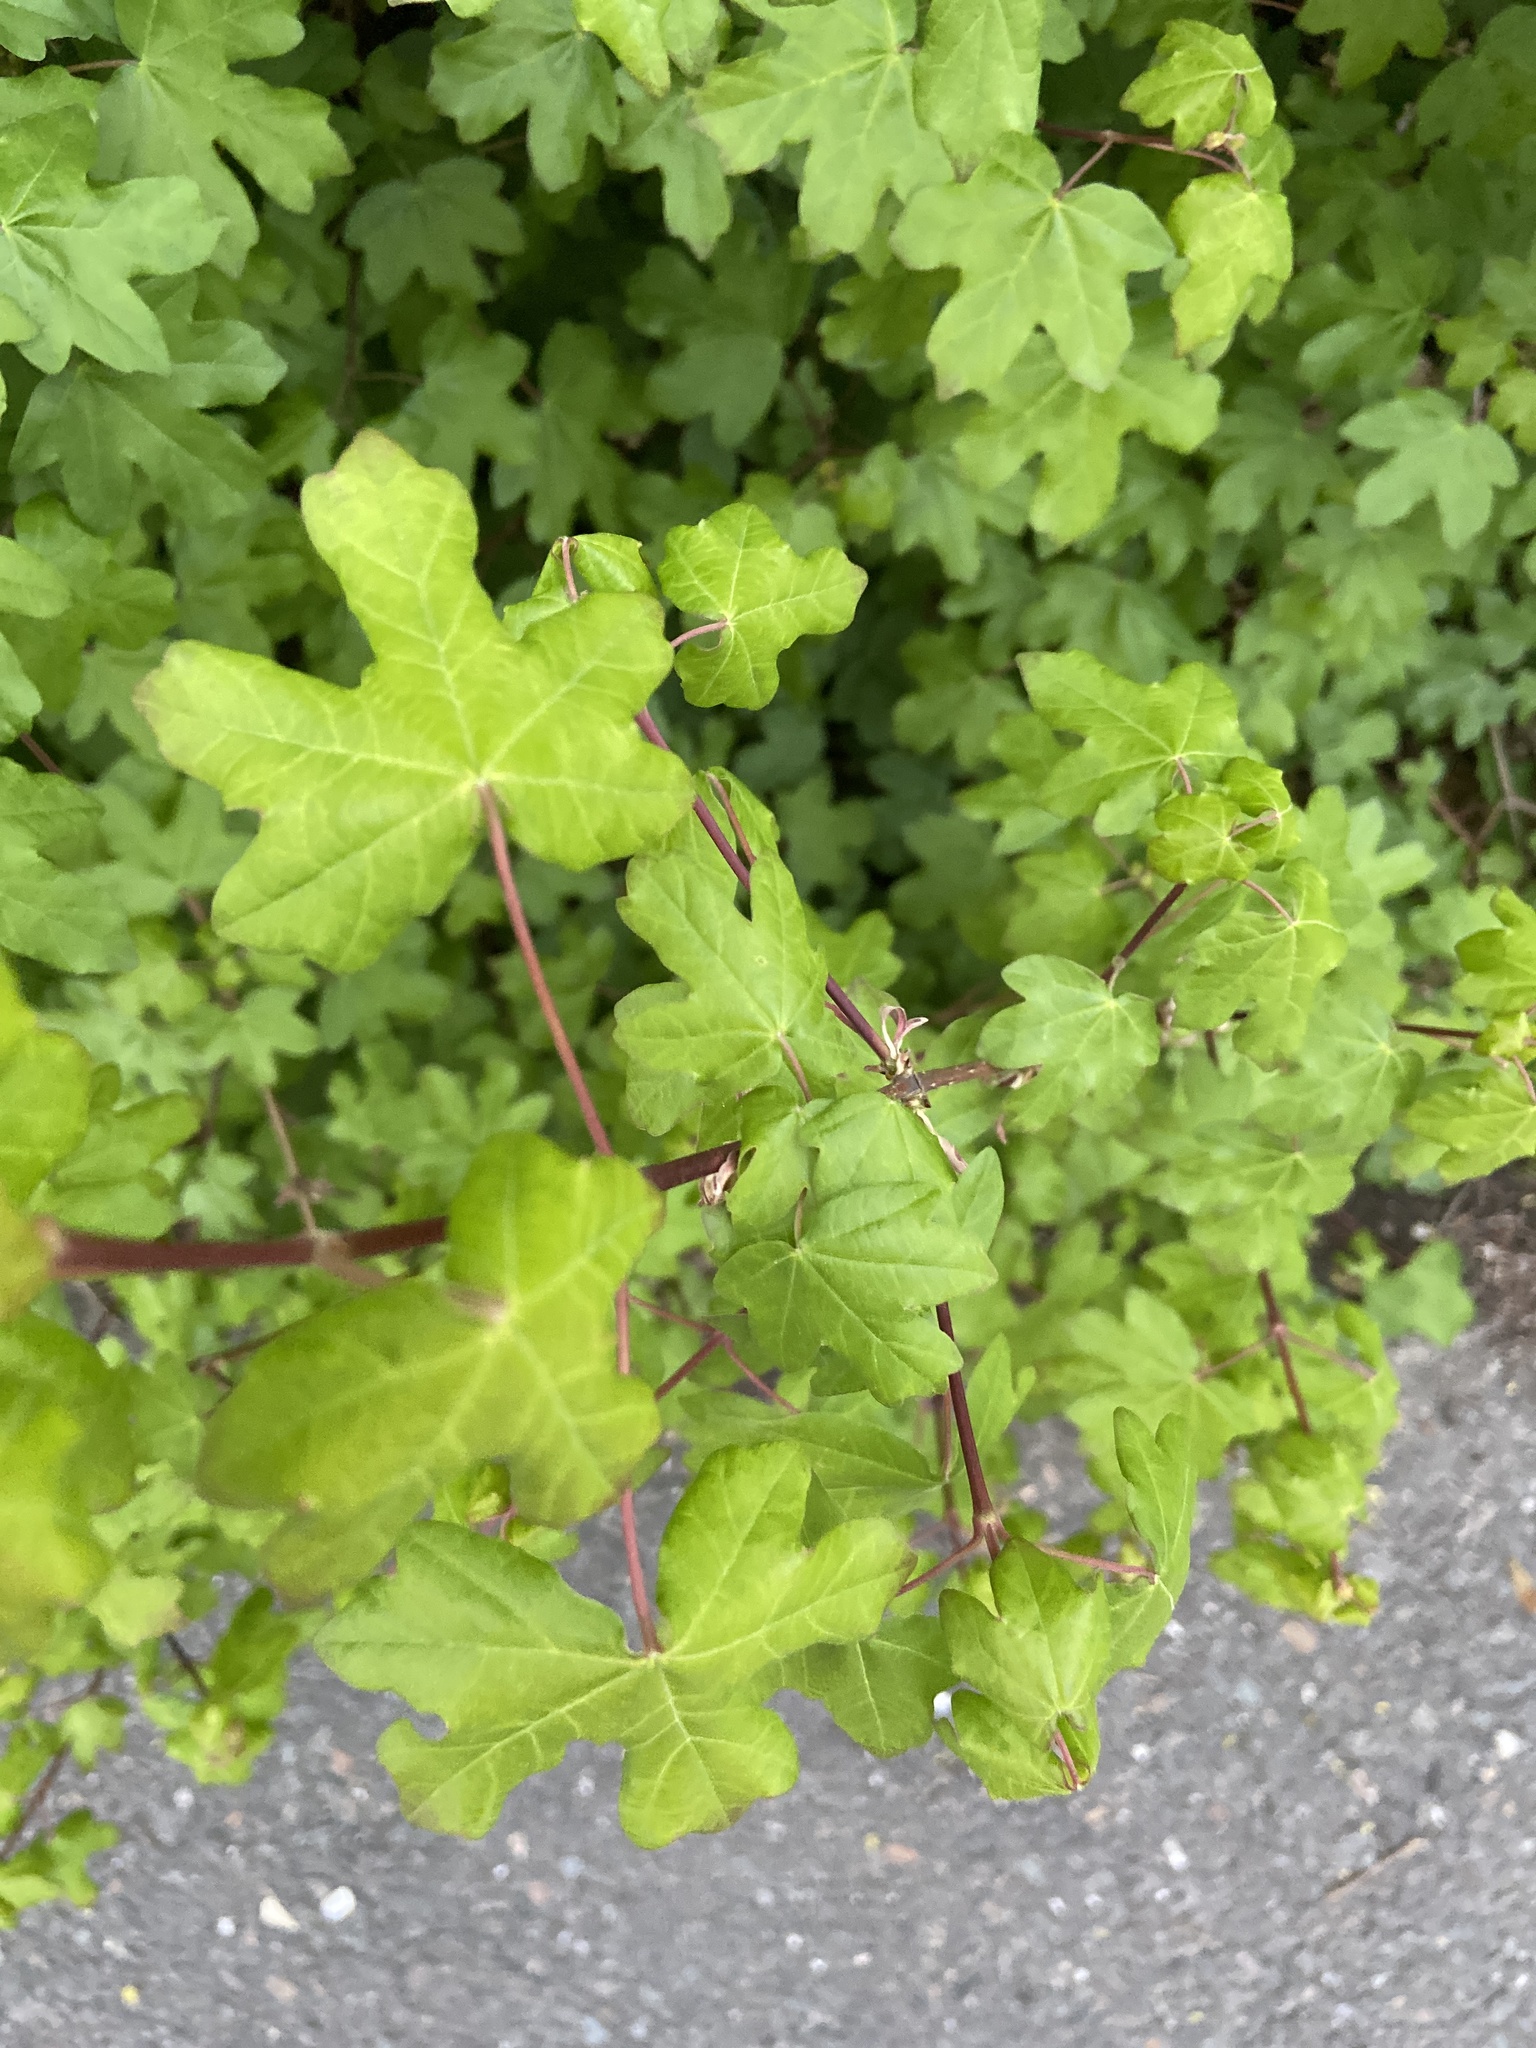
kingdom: Plantae
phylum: Tracheophyta
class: Magnoliopsida
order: Sapindales
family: Sapindaceae
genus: Acer
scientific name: Acer campestre
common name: Field maple
